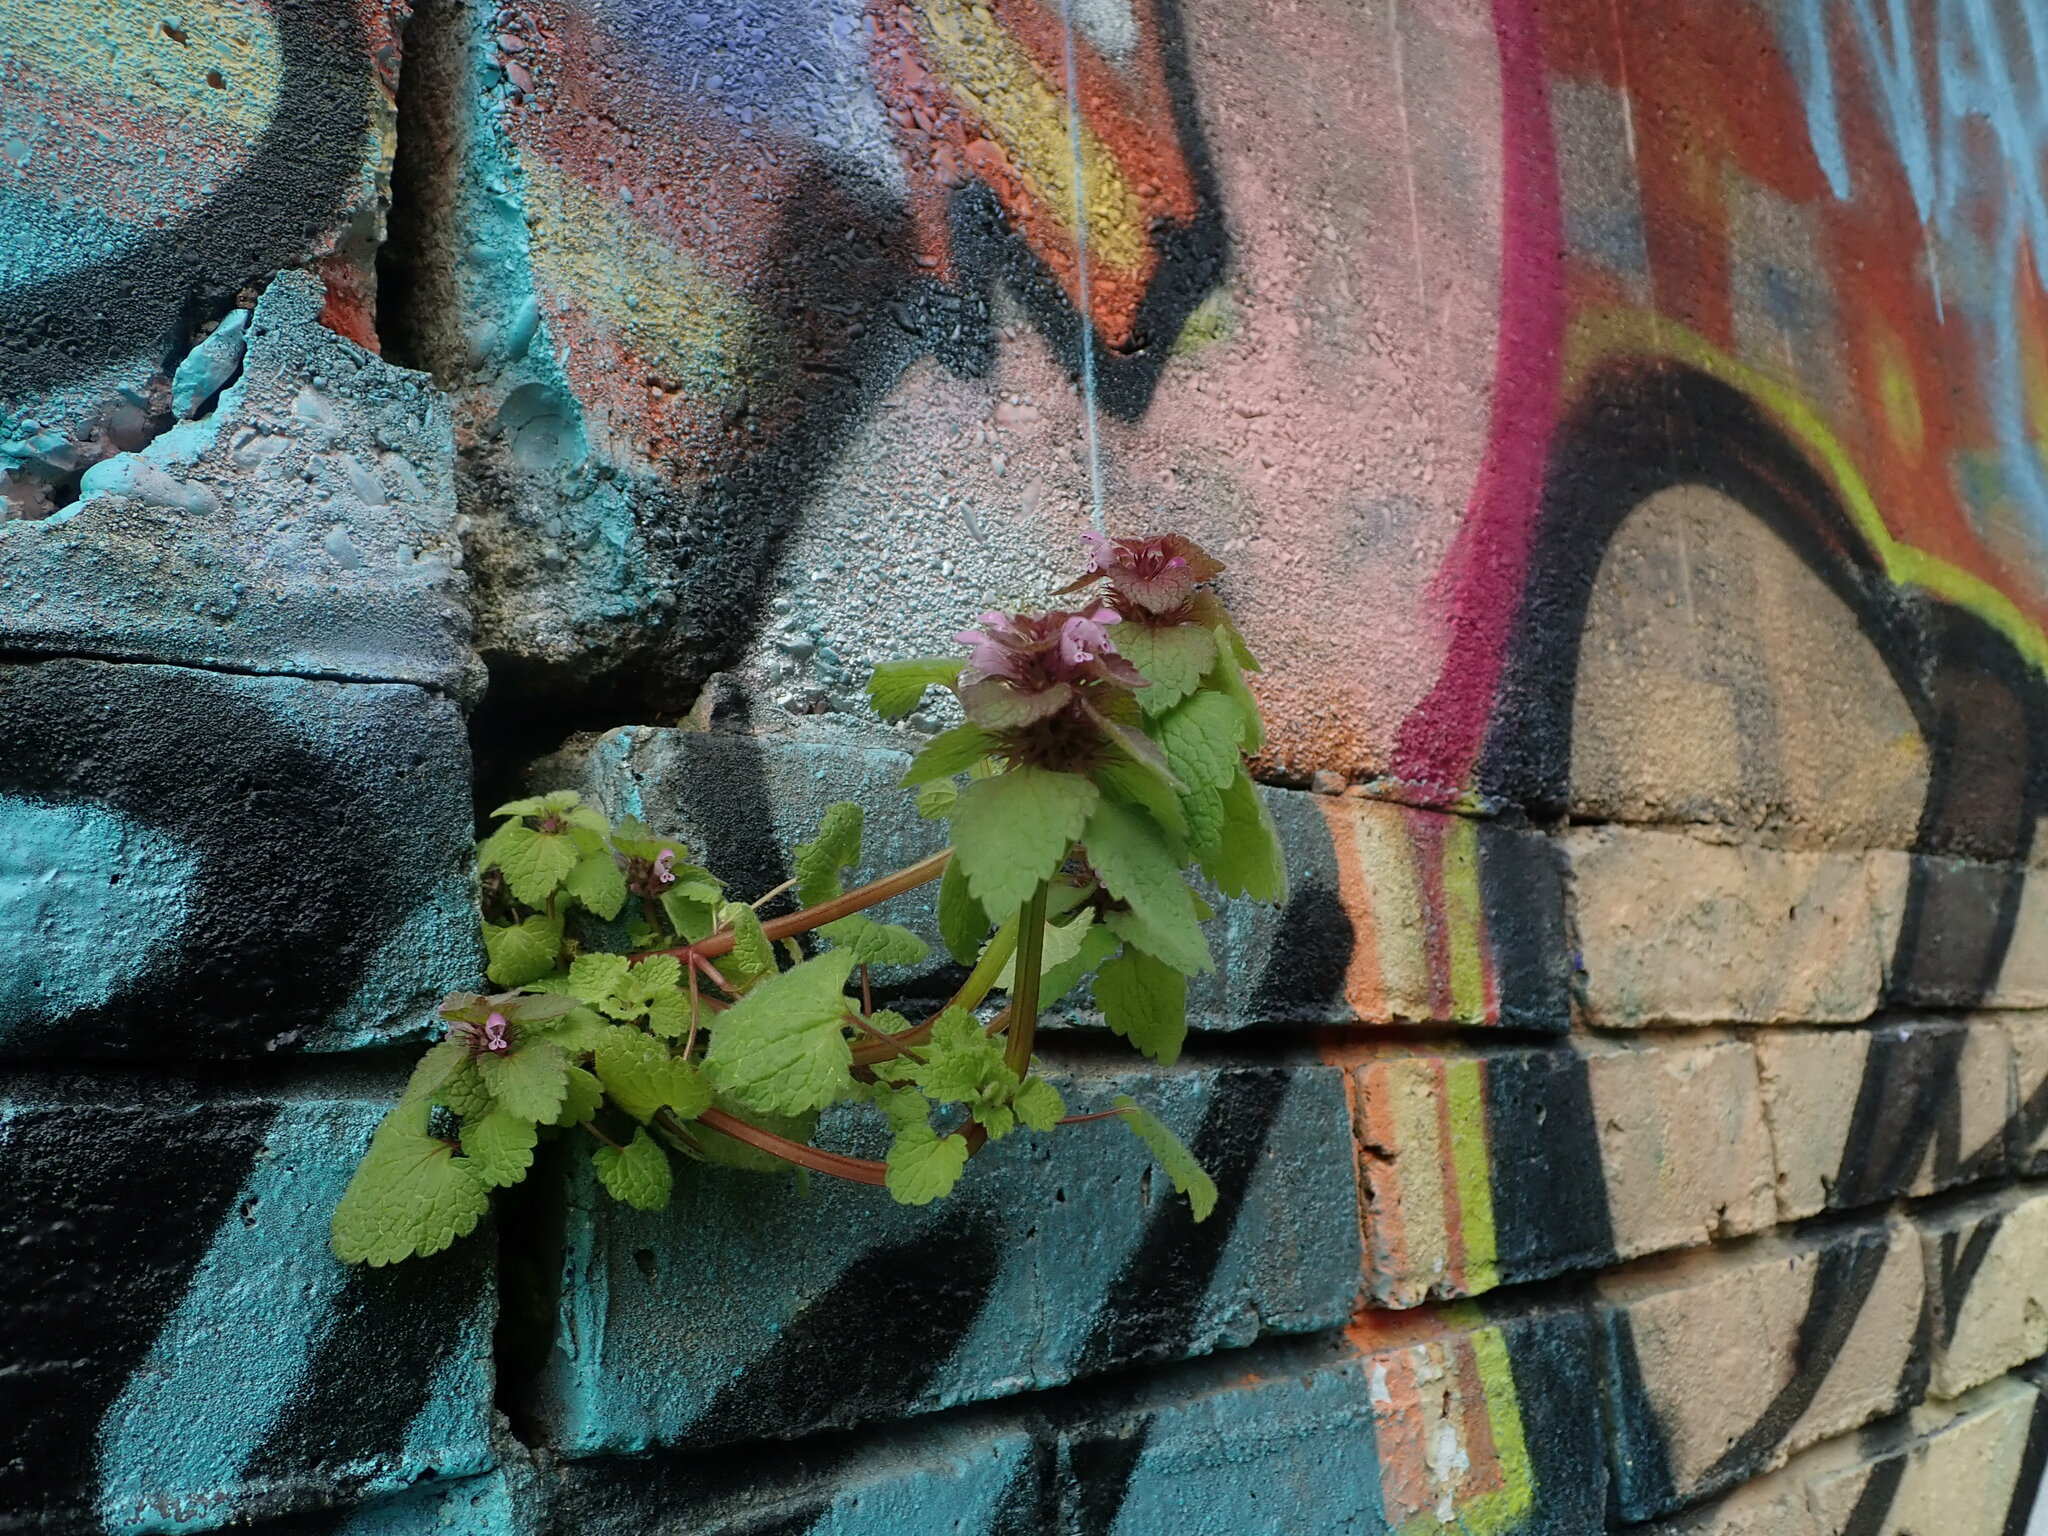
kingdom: Plantae
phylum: Tracheophyta
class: Magnoliopsida
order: Lamiales
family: Lamiaceae
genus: Lamium
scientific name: Lamium purpureum
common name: Red dead-nettle
